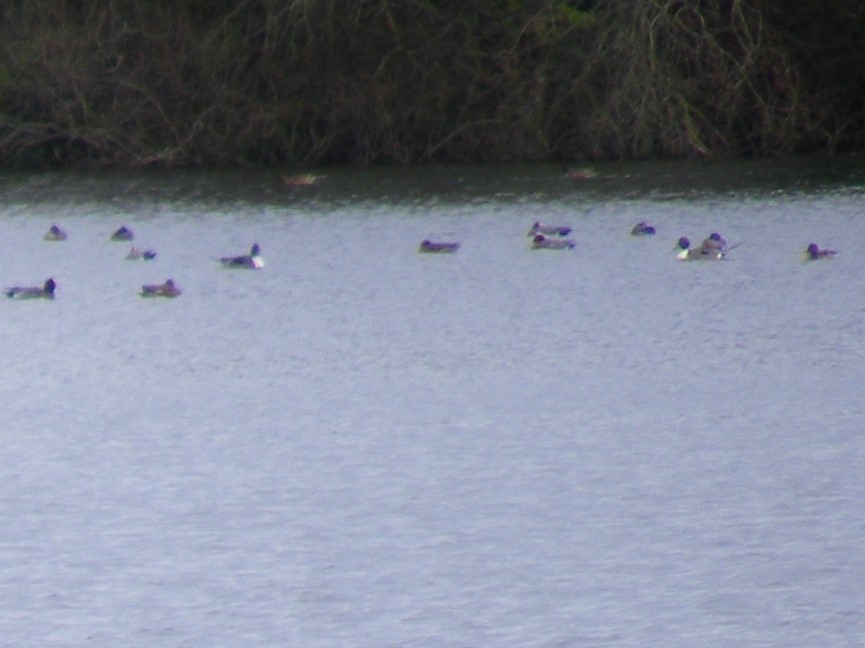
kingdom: Animalia
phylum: Chordata
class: Aves
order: Anseriformes
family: Anatidae
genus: Anas
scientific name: Anas acuta
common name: Northern pintail
